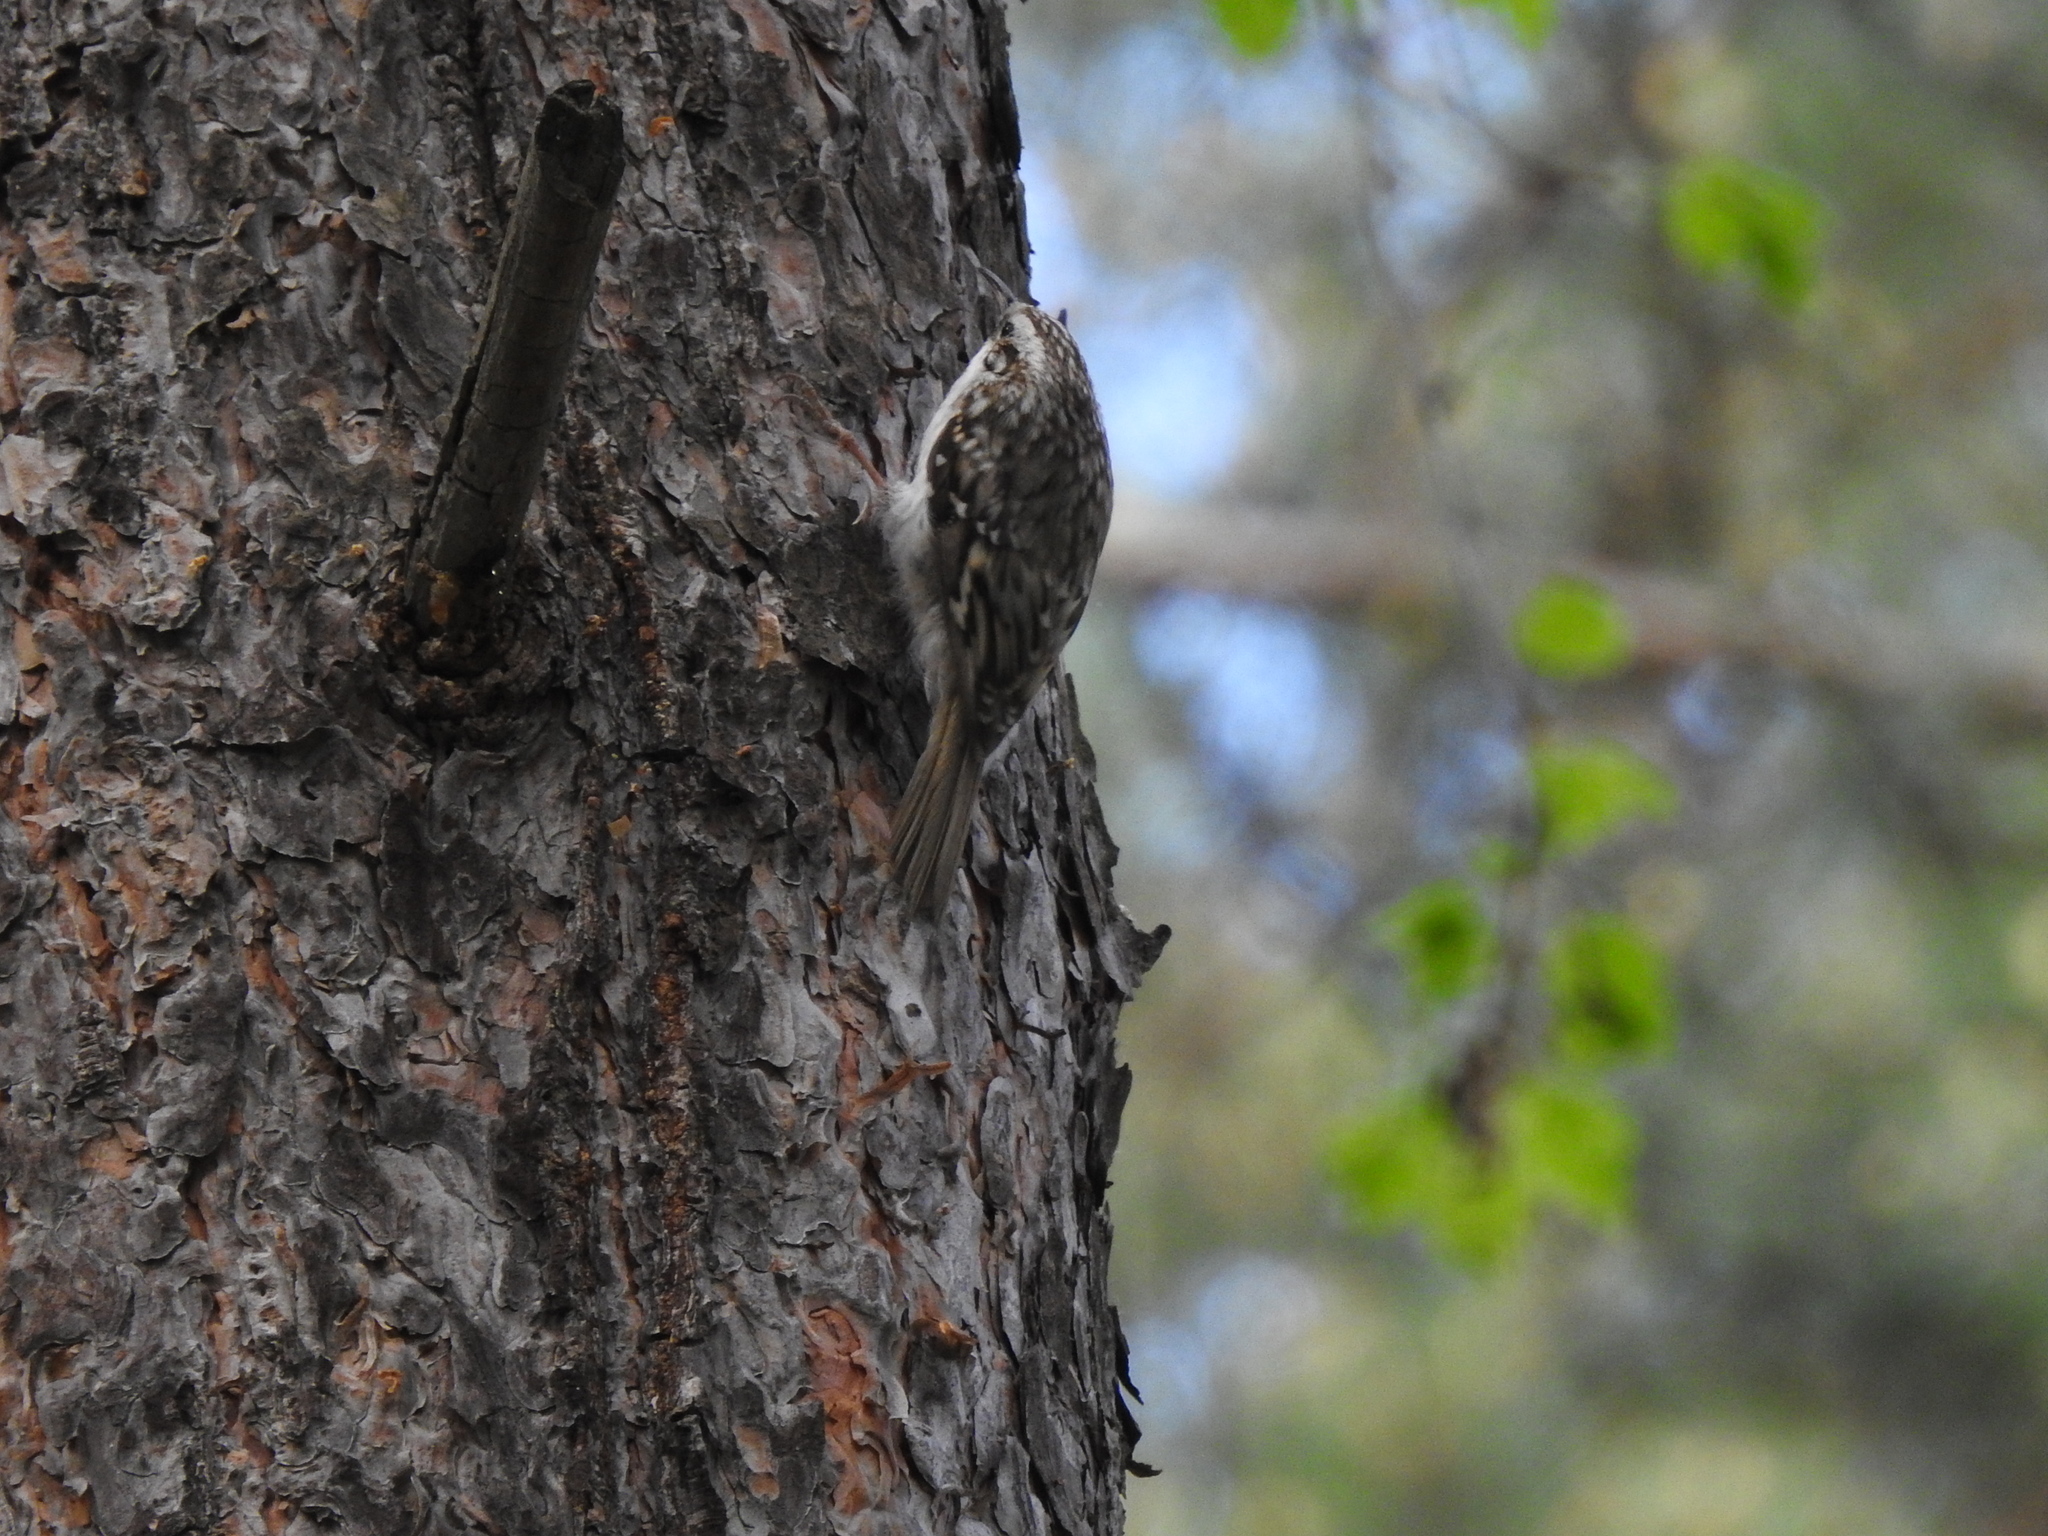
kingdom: Animalia
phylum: Chordata
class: Aves
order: Passeriformes
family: Certhiidae
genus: Certhia
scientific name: Certhia familiaris
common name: Eurasian treecreeper
